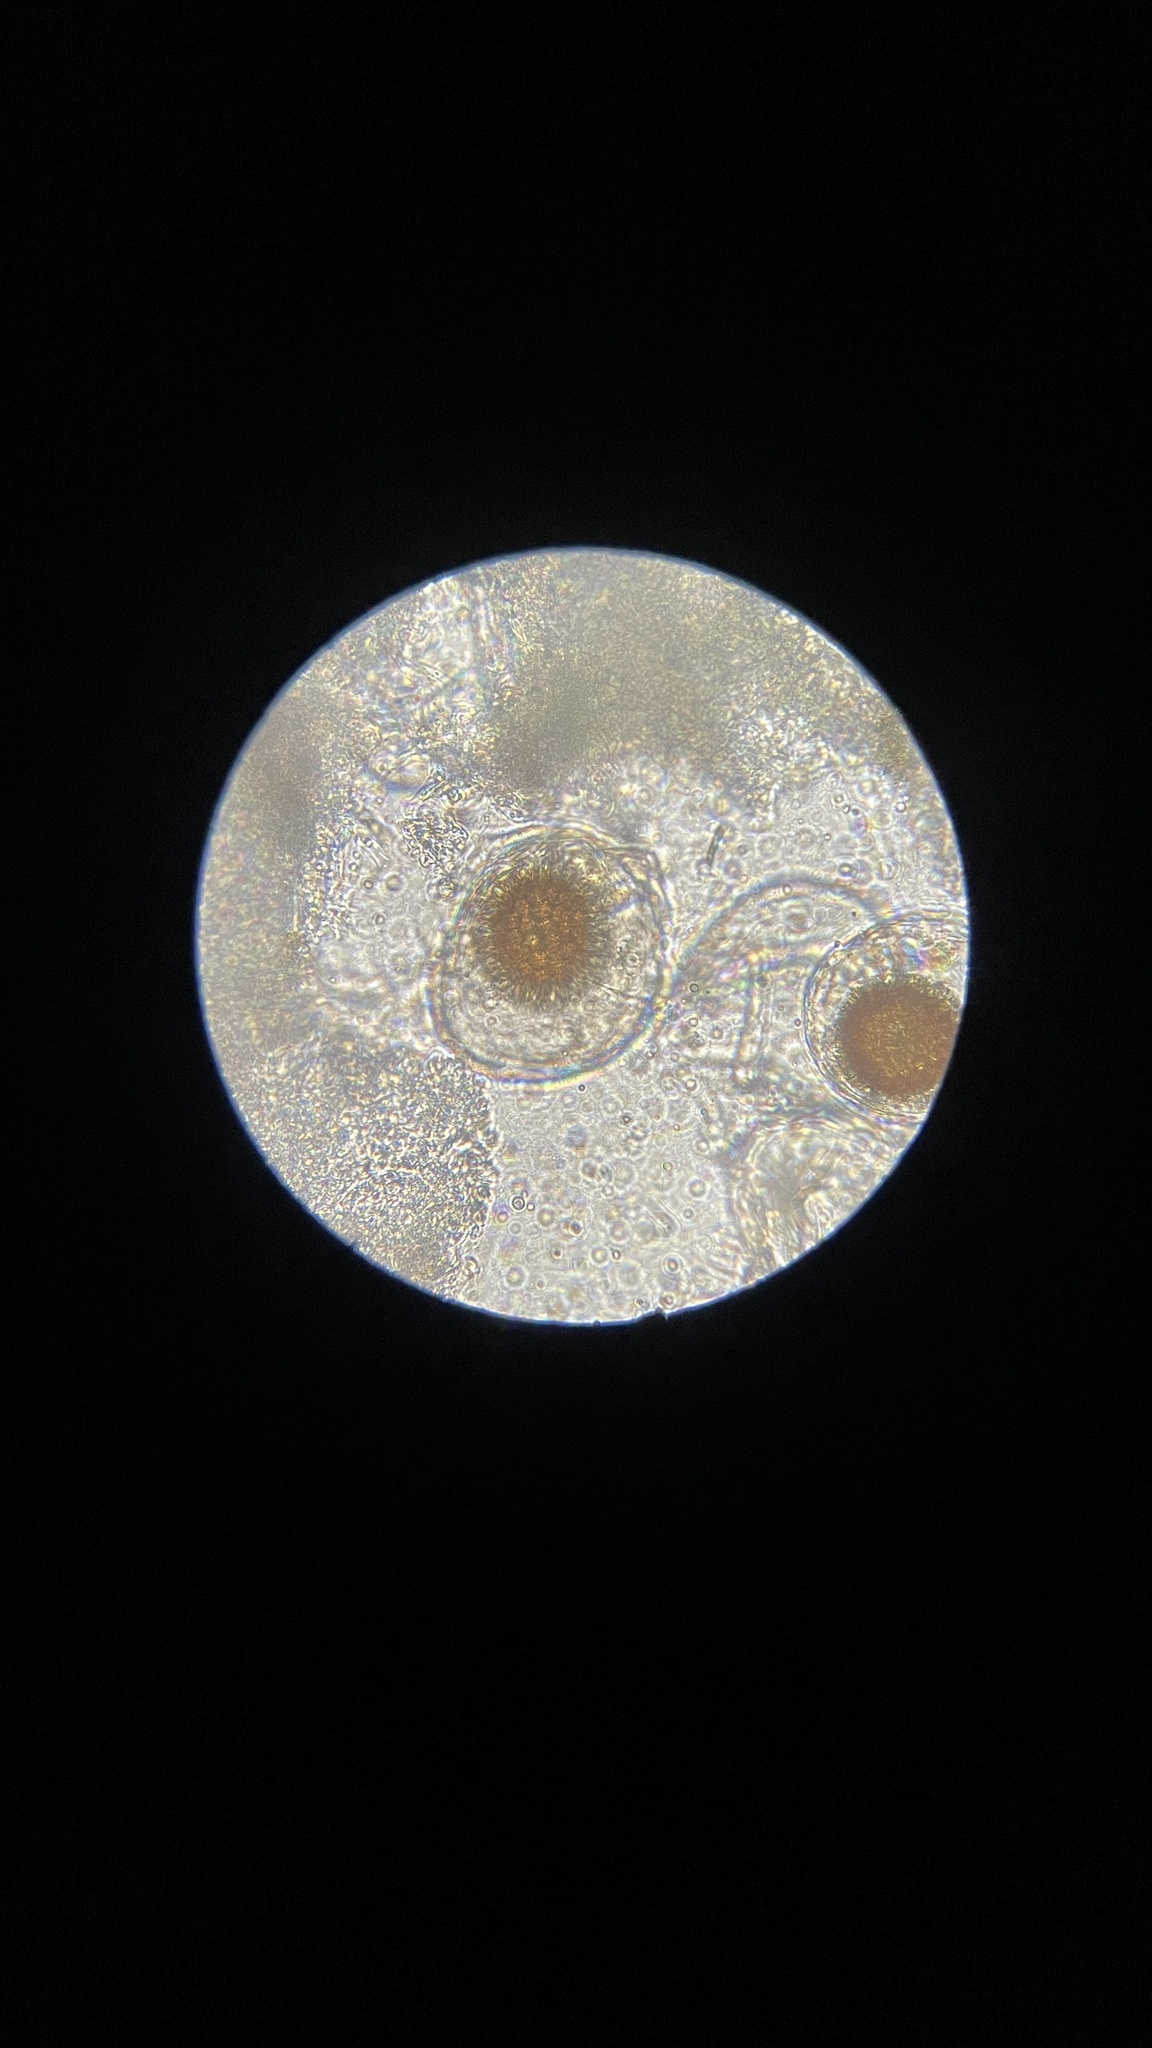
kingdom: Fungi
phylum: Ascomycota
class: Pezizomycetes
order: Pezizales
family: Tuberaceae
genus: Tuber
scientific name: Tuber anniae
